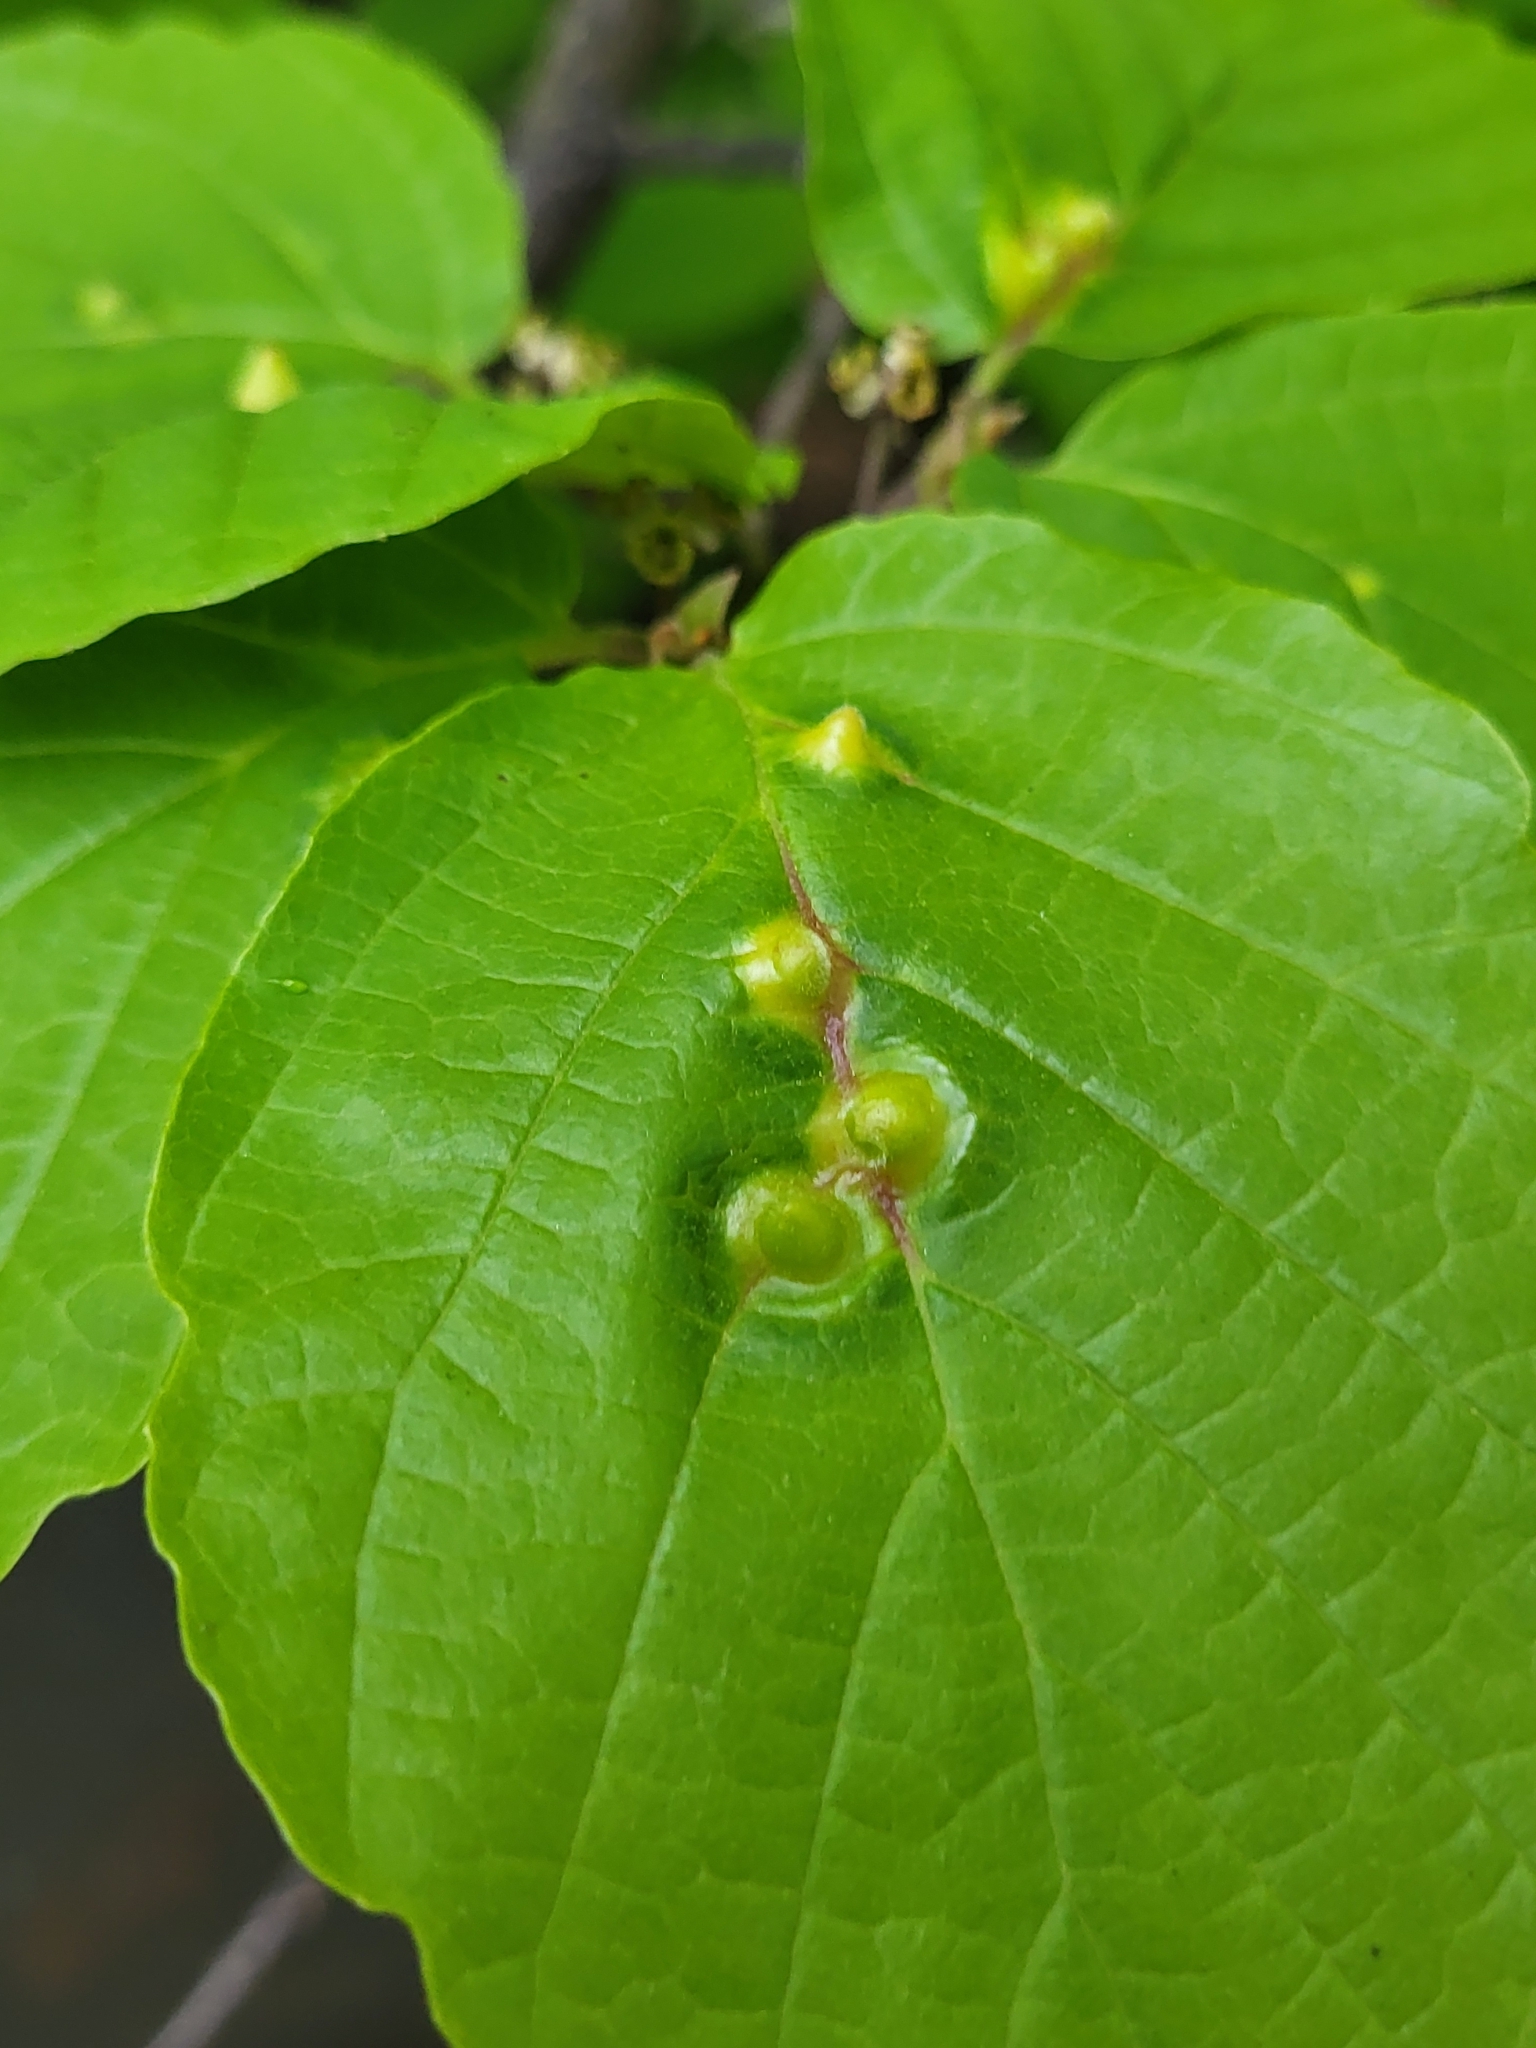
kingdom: Animalia
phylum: Arthropoda
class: Insecta
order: Hemiptera
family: Aphididae
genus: Hormaphis
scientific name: Hormaphis hamamelidis
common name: Witch-hazel cone gall aphid
